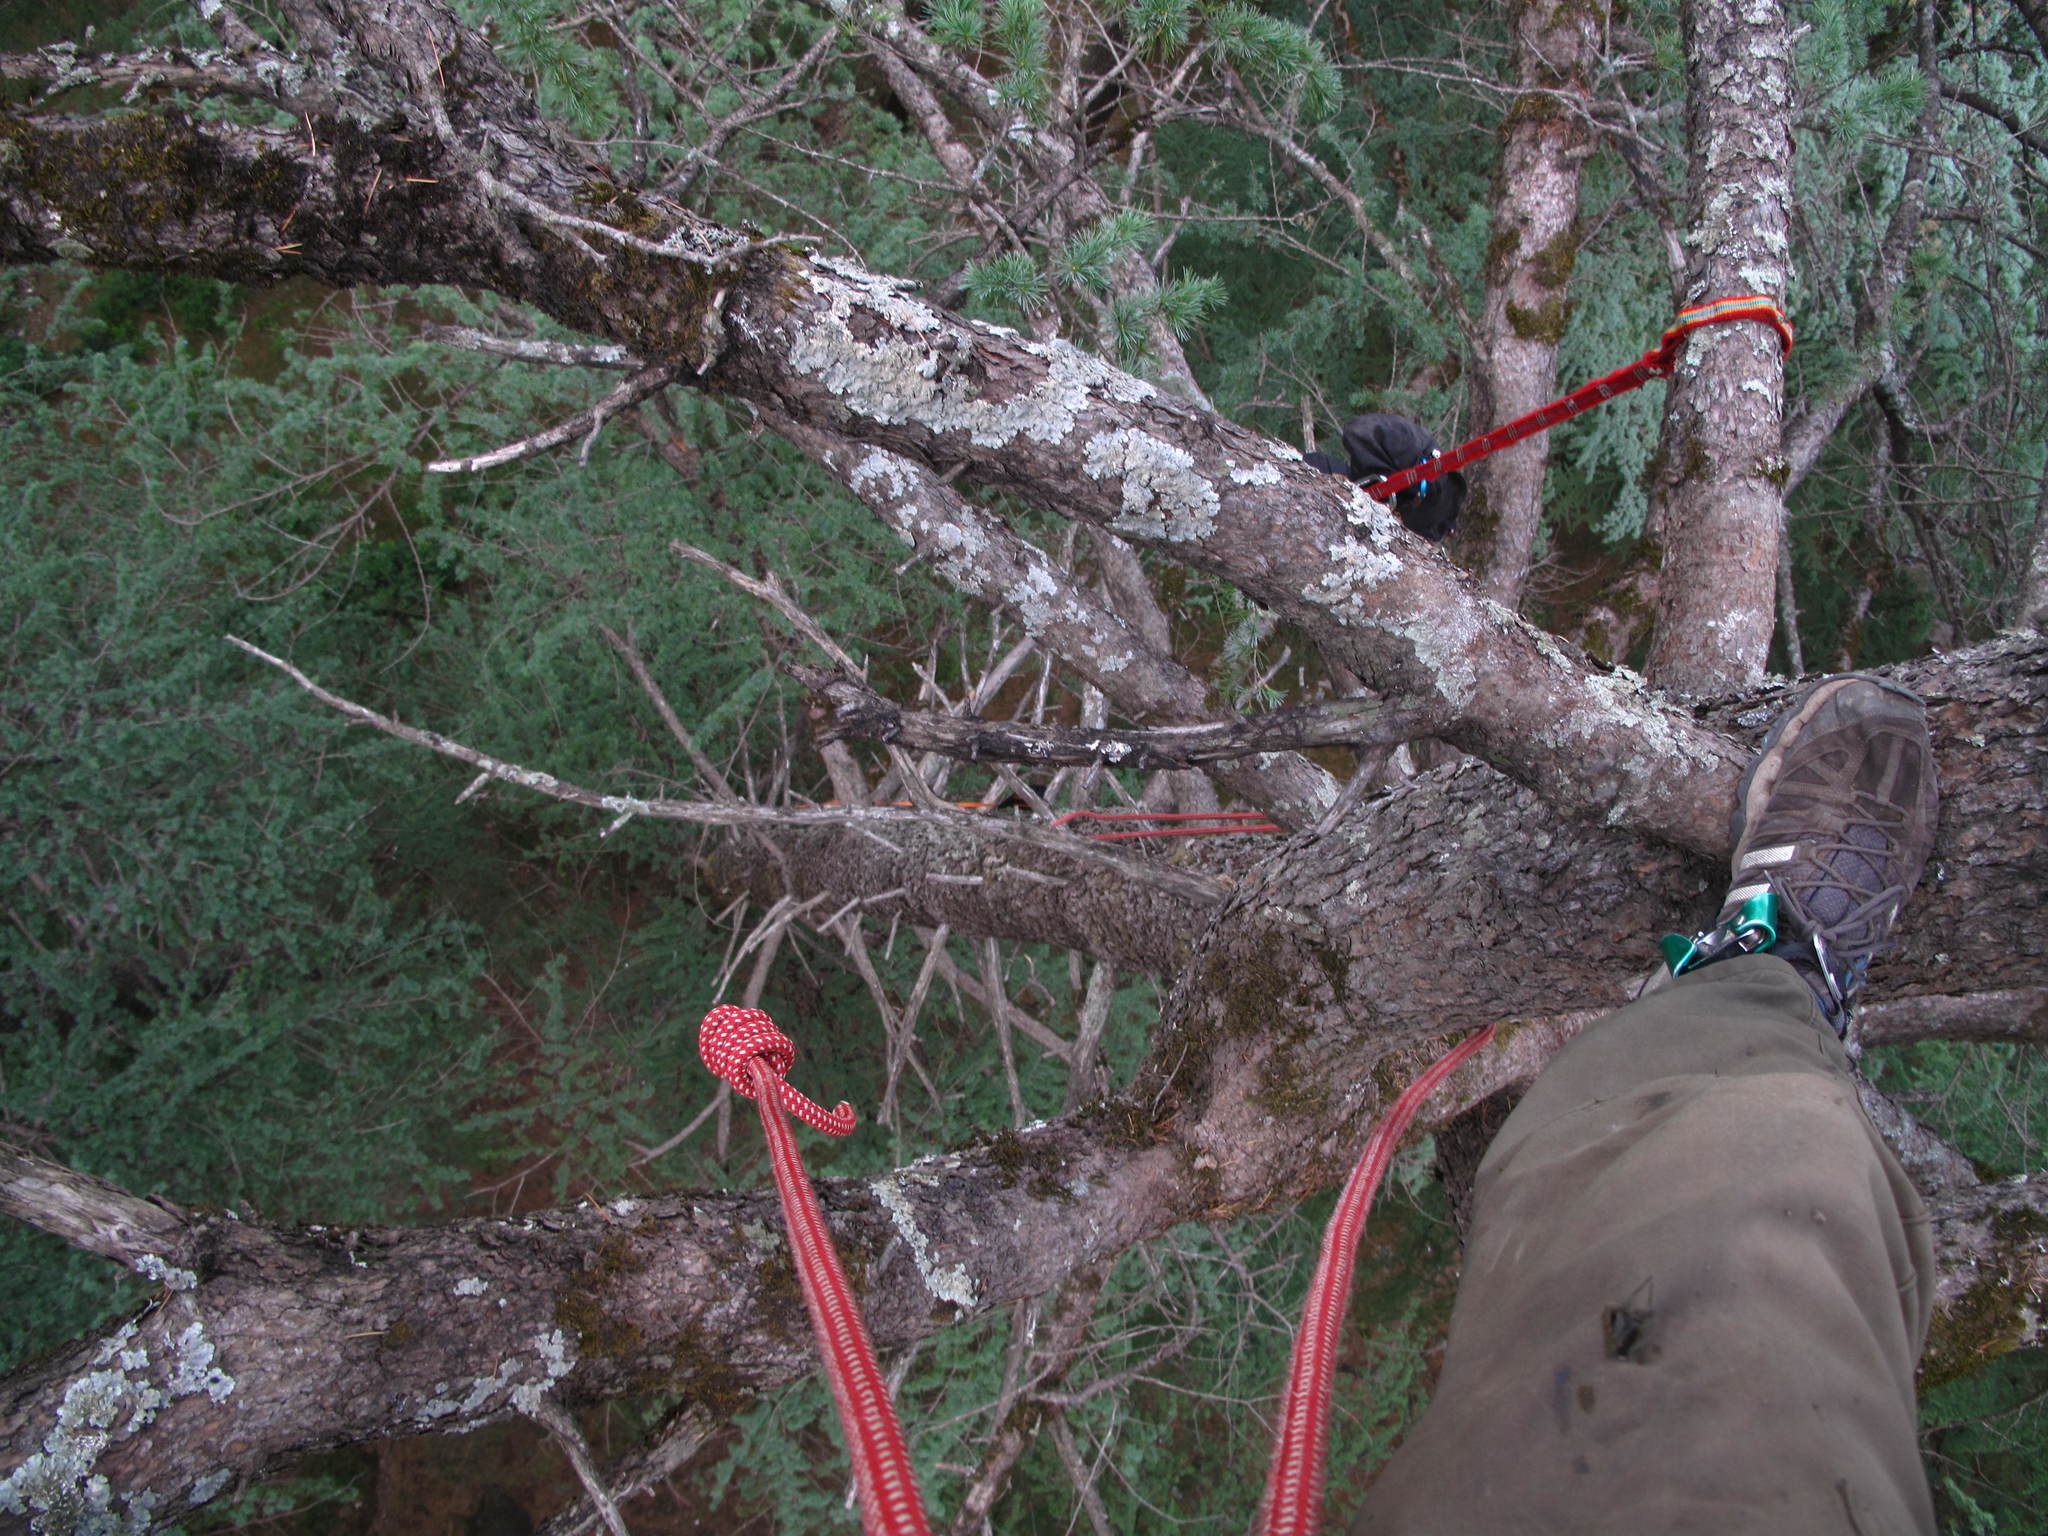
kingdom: Plantae
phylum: Tracheophyta
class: Pinopsida
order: Pinales
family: Pinaceae
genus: Cedrus
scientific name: Cedrus deodara
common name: Deodar
